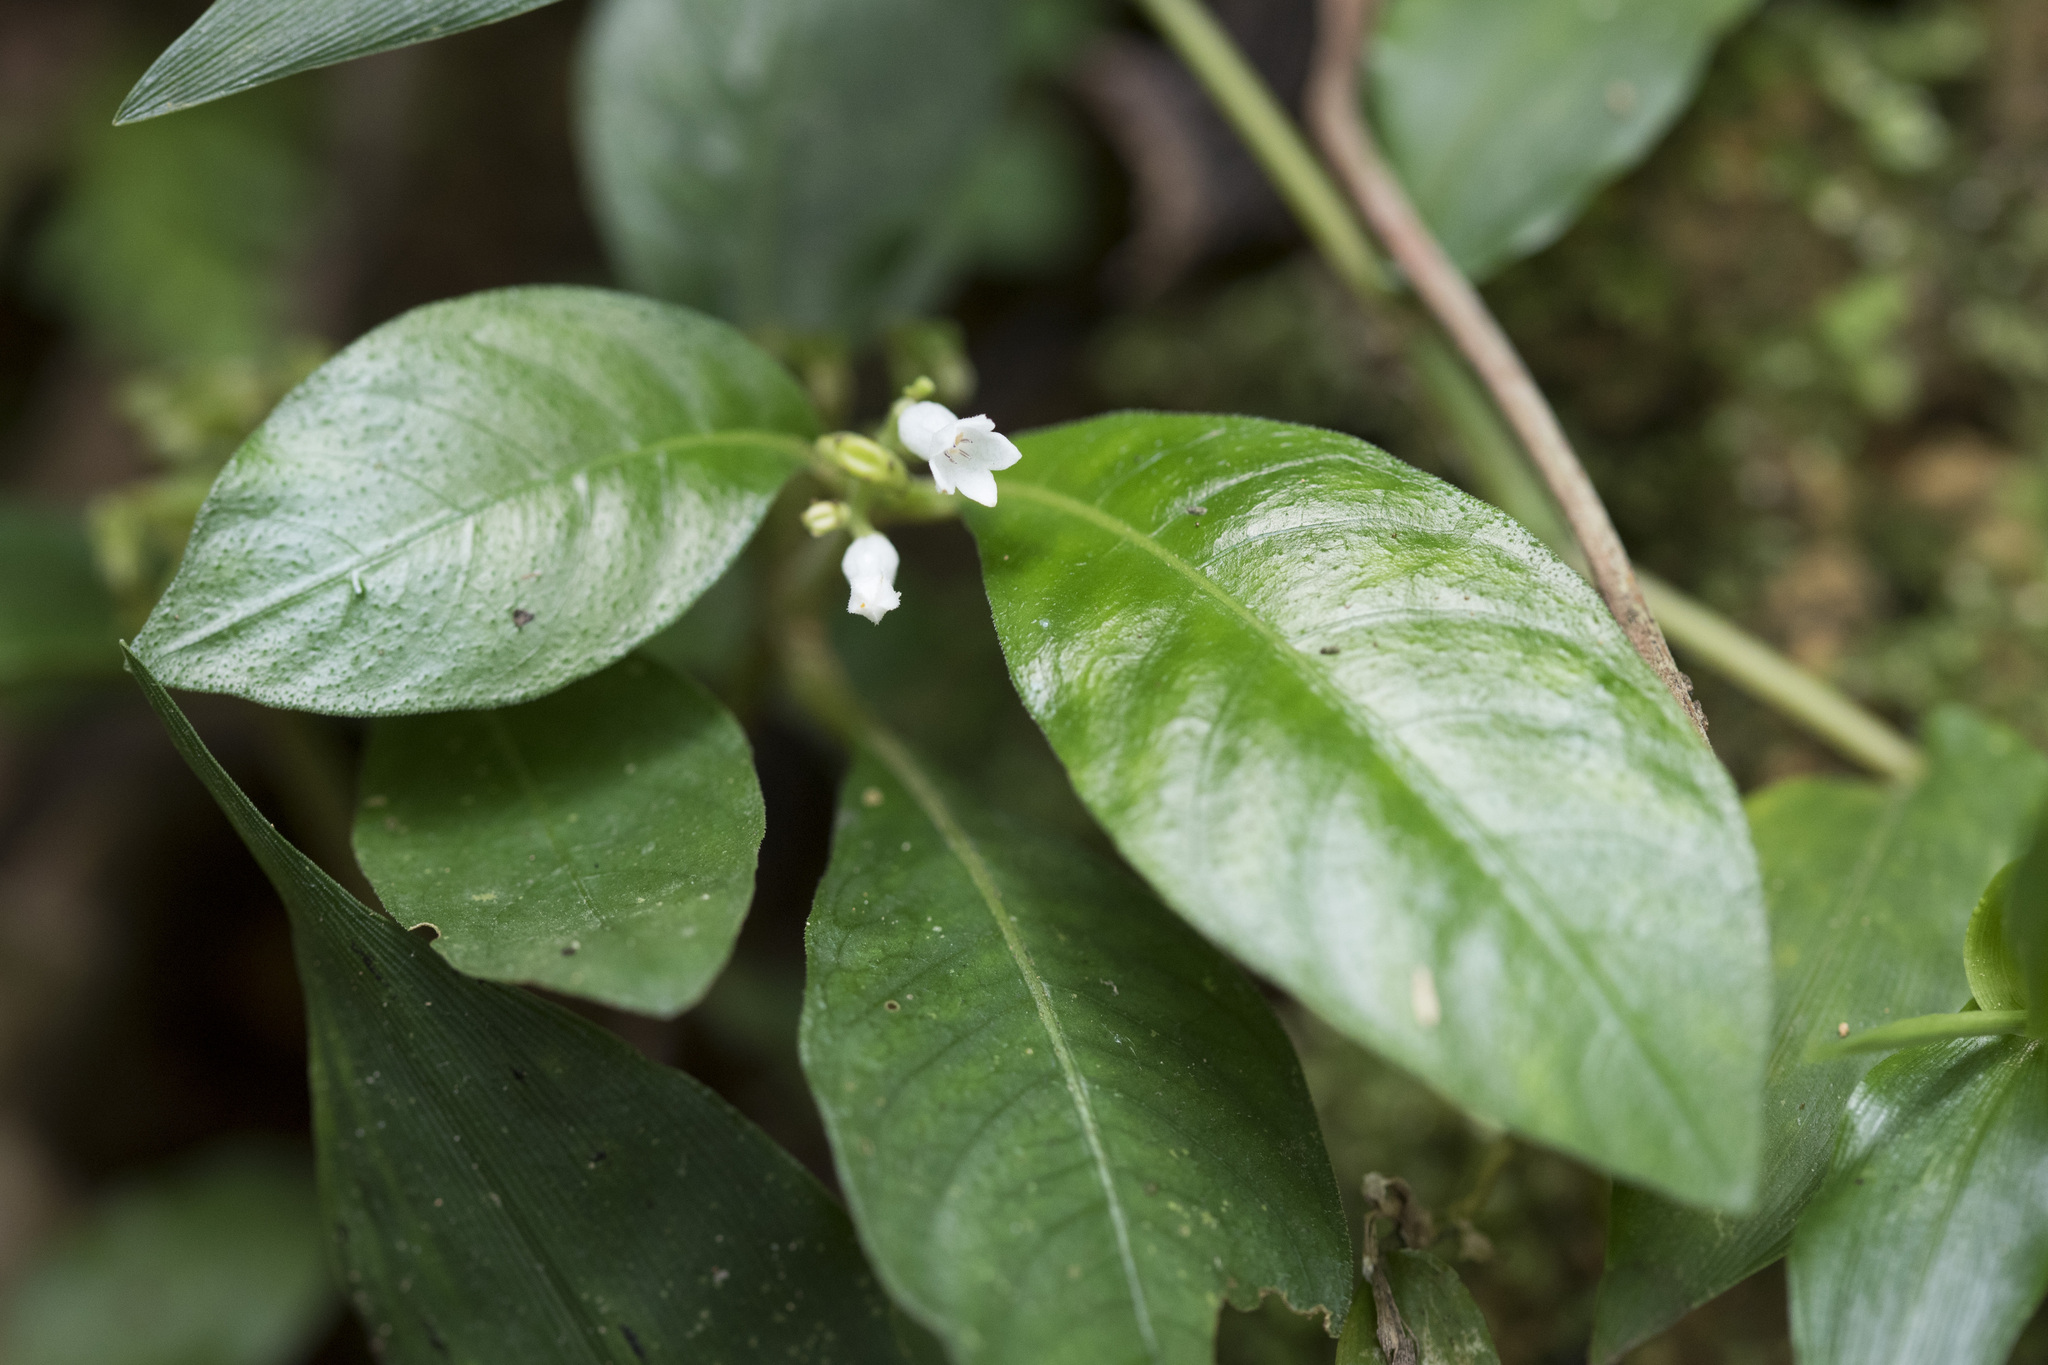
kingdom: Plantae
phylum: Tracheophyta
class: Magnoliopsida
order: Gentianales
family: Rubiaceae
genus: Ophiorrhiza
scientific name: Ophiorrhiza pumila
